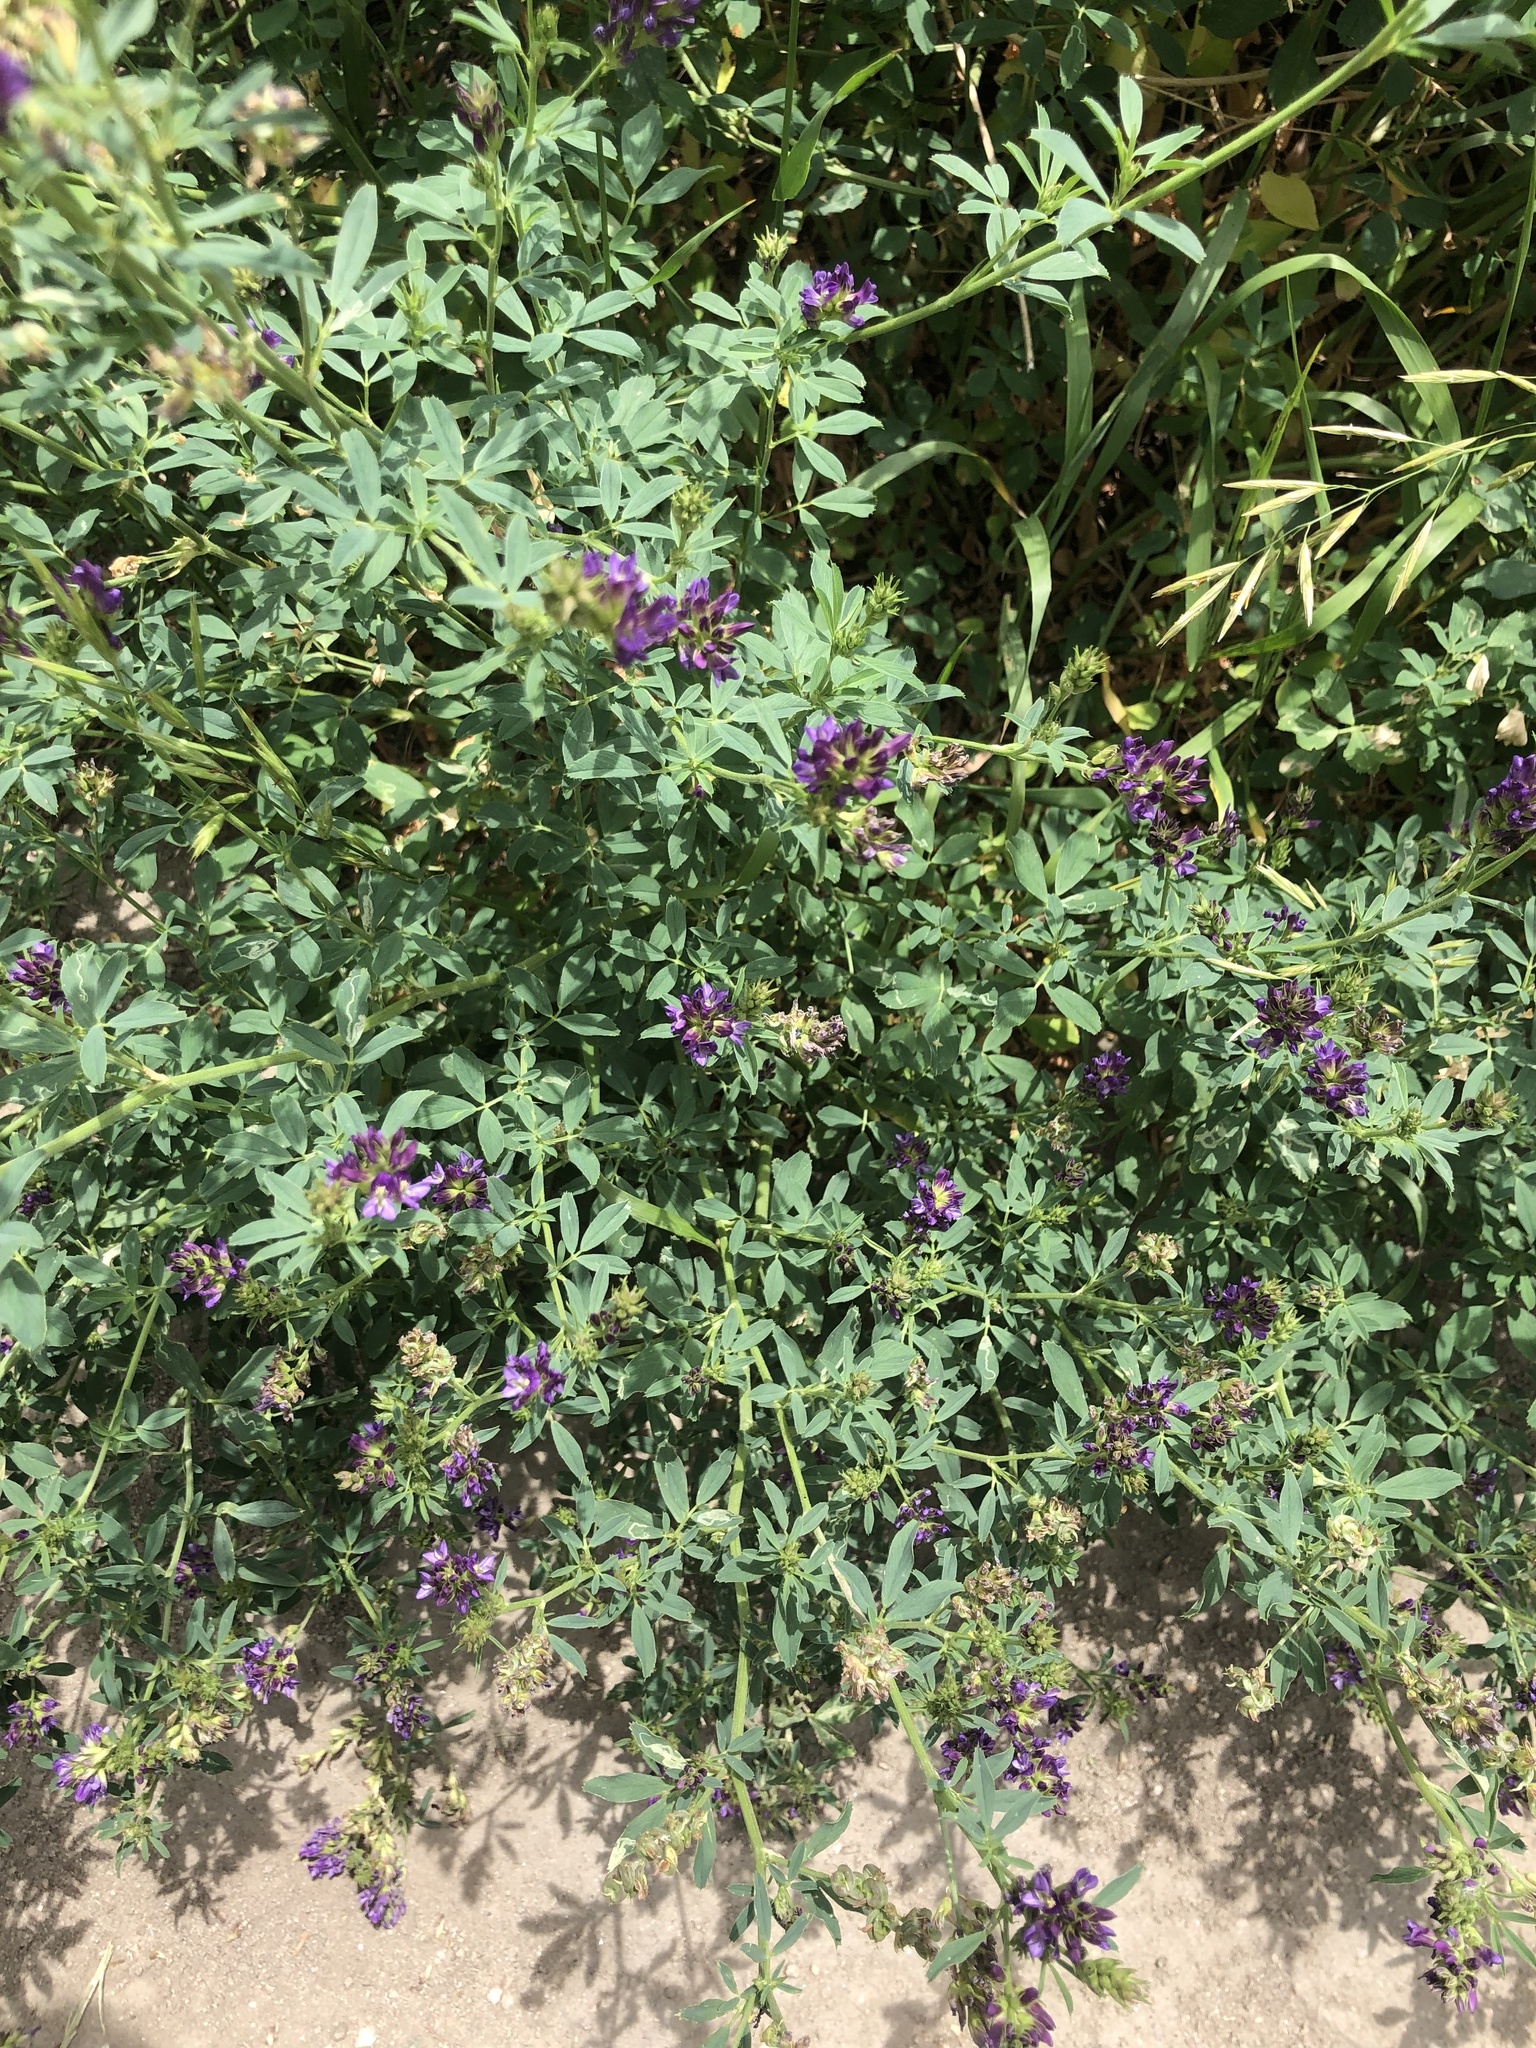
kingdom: Plantae
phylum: Tracheophyta
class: Magnoliopsida
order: Fabales
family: Fabaceae
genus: Medicago
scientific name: Medicago sativa
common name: Alfalfa
